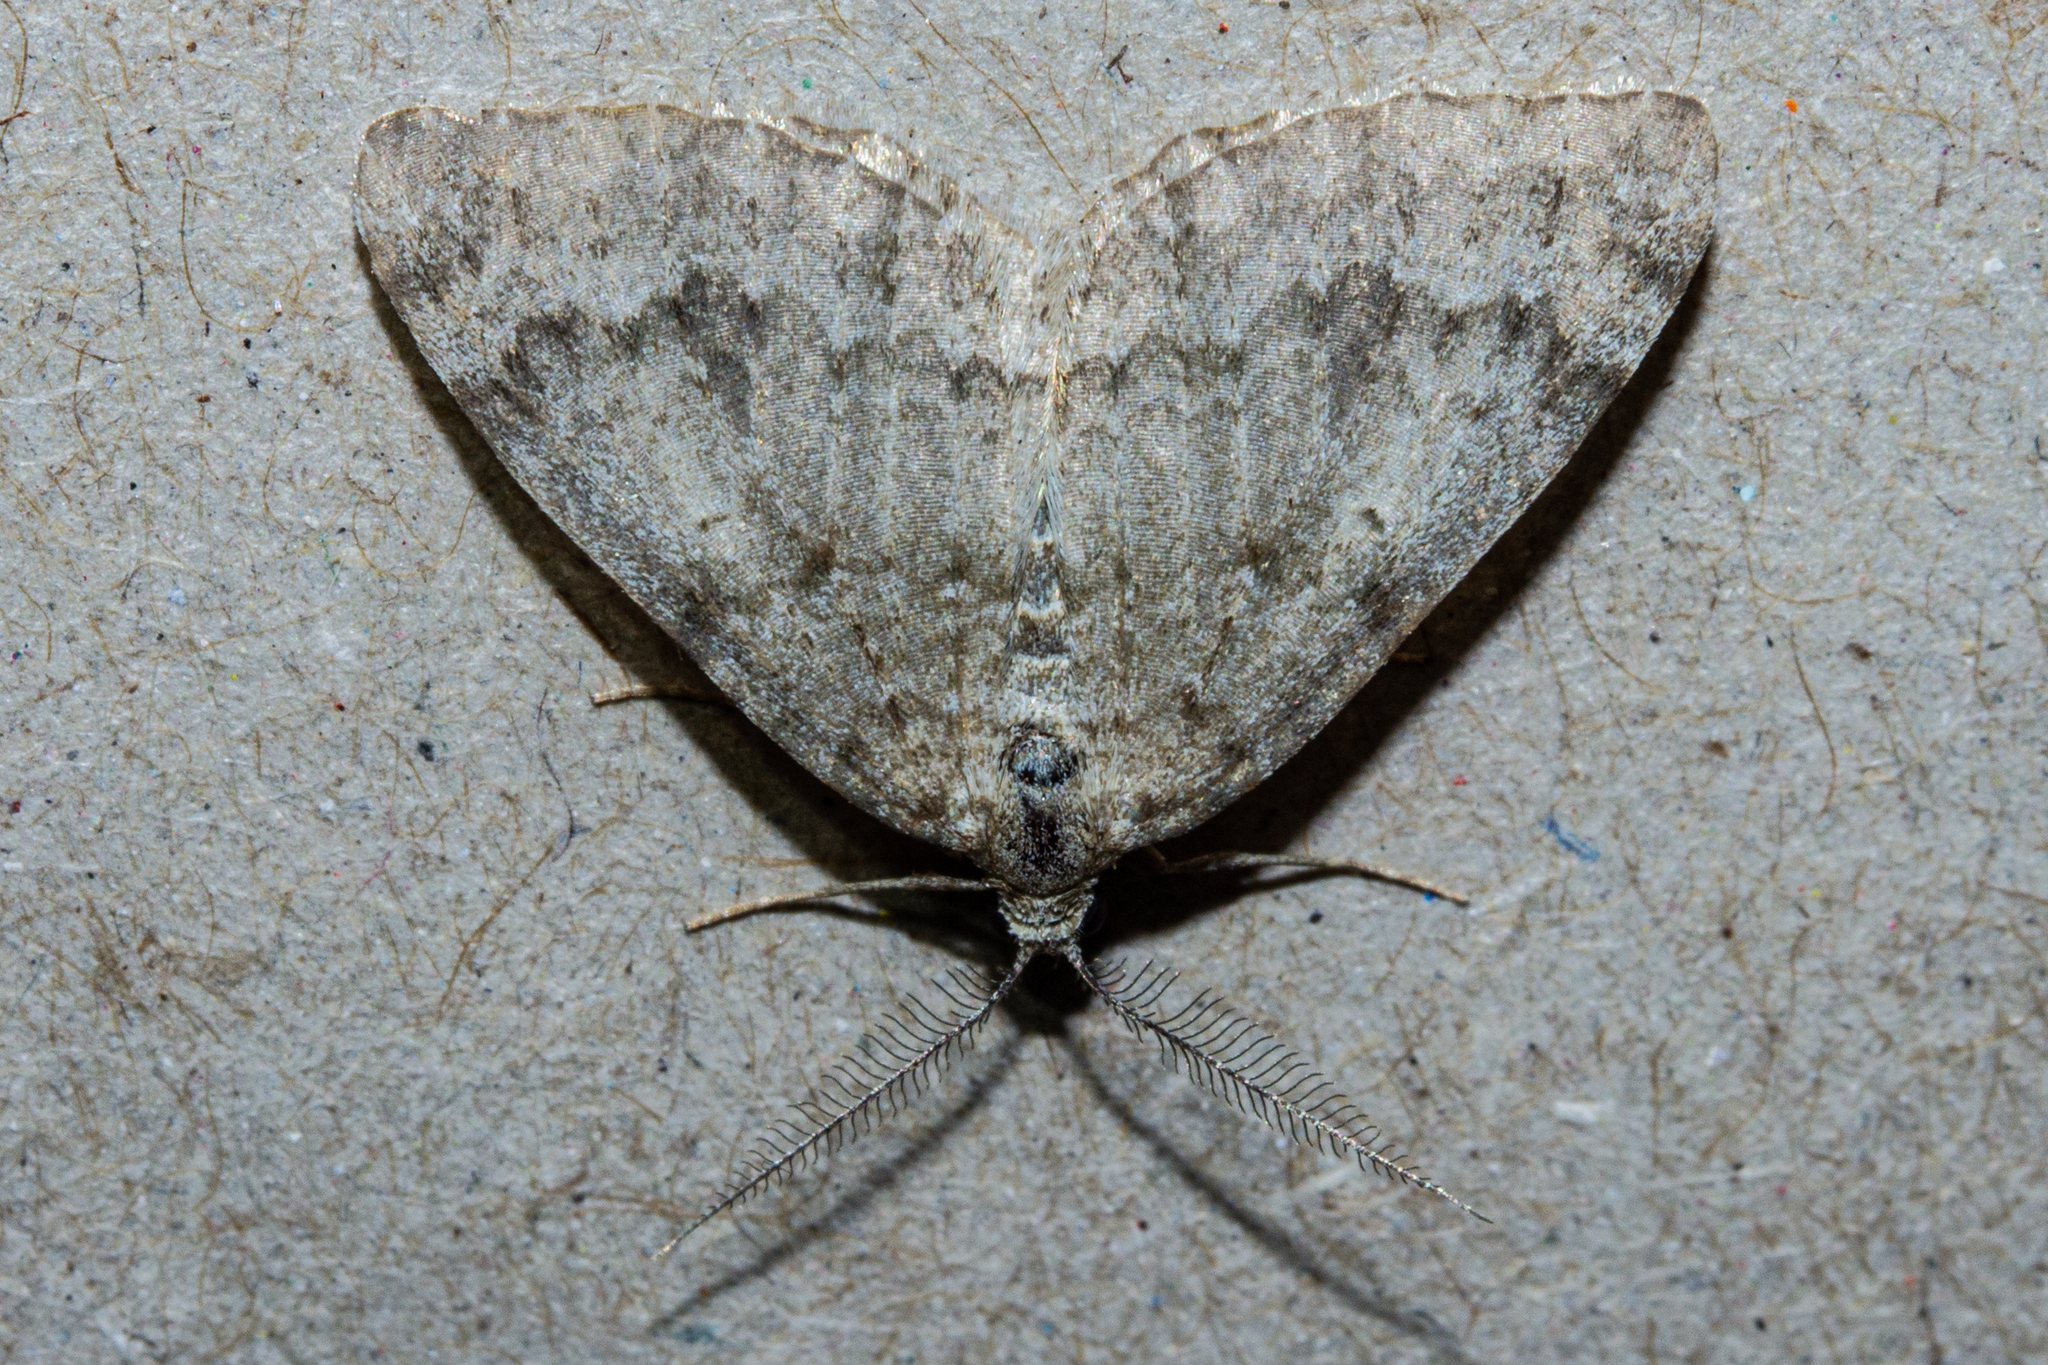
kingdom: Animalia
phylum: Arthropoda
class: Insecta
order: Lepidoptera
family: Geometridae
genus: Helastia
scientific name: Helastia corcularia
